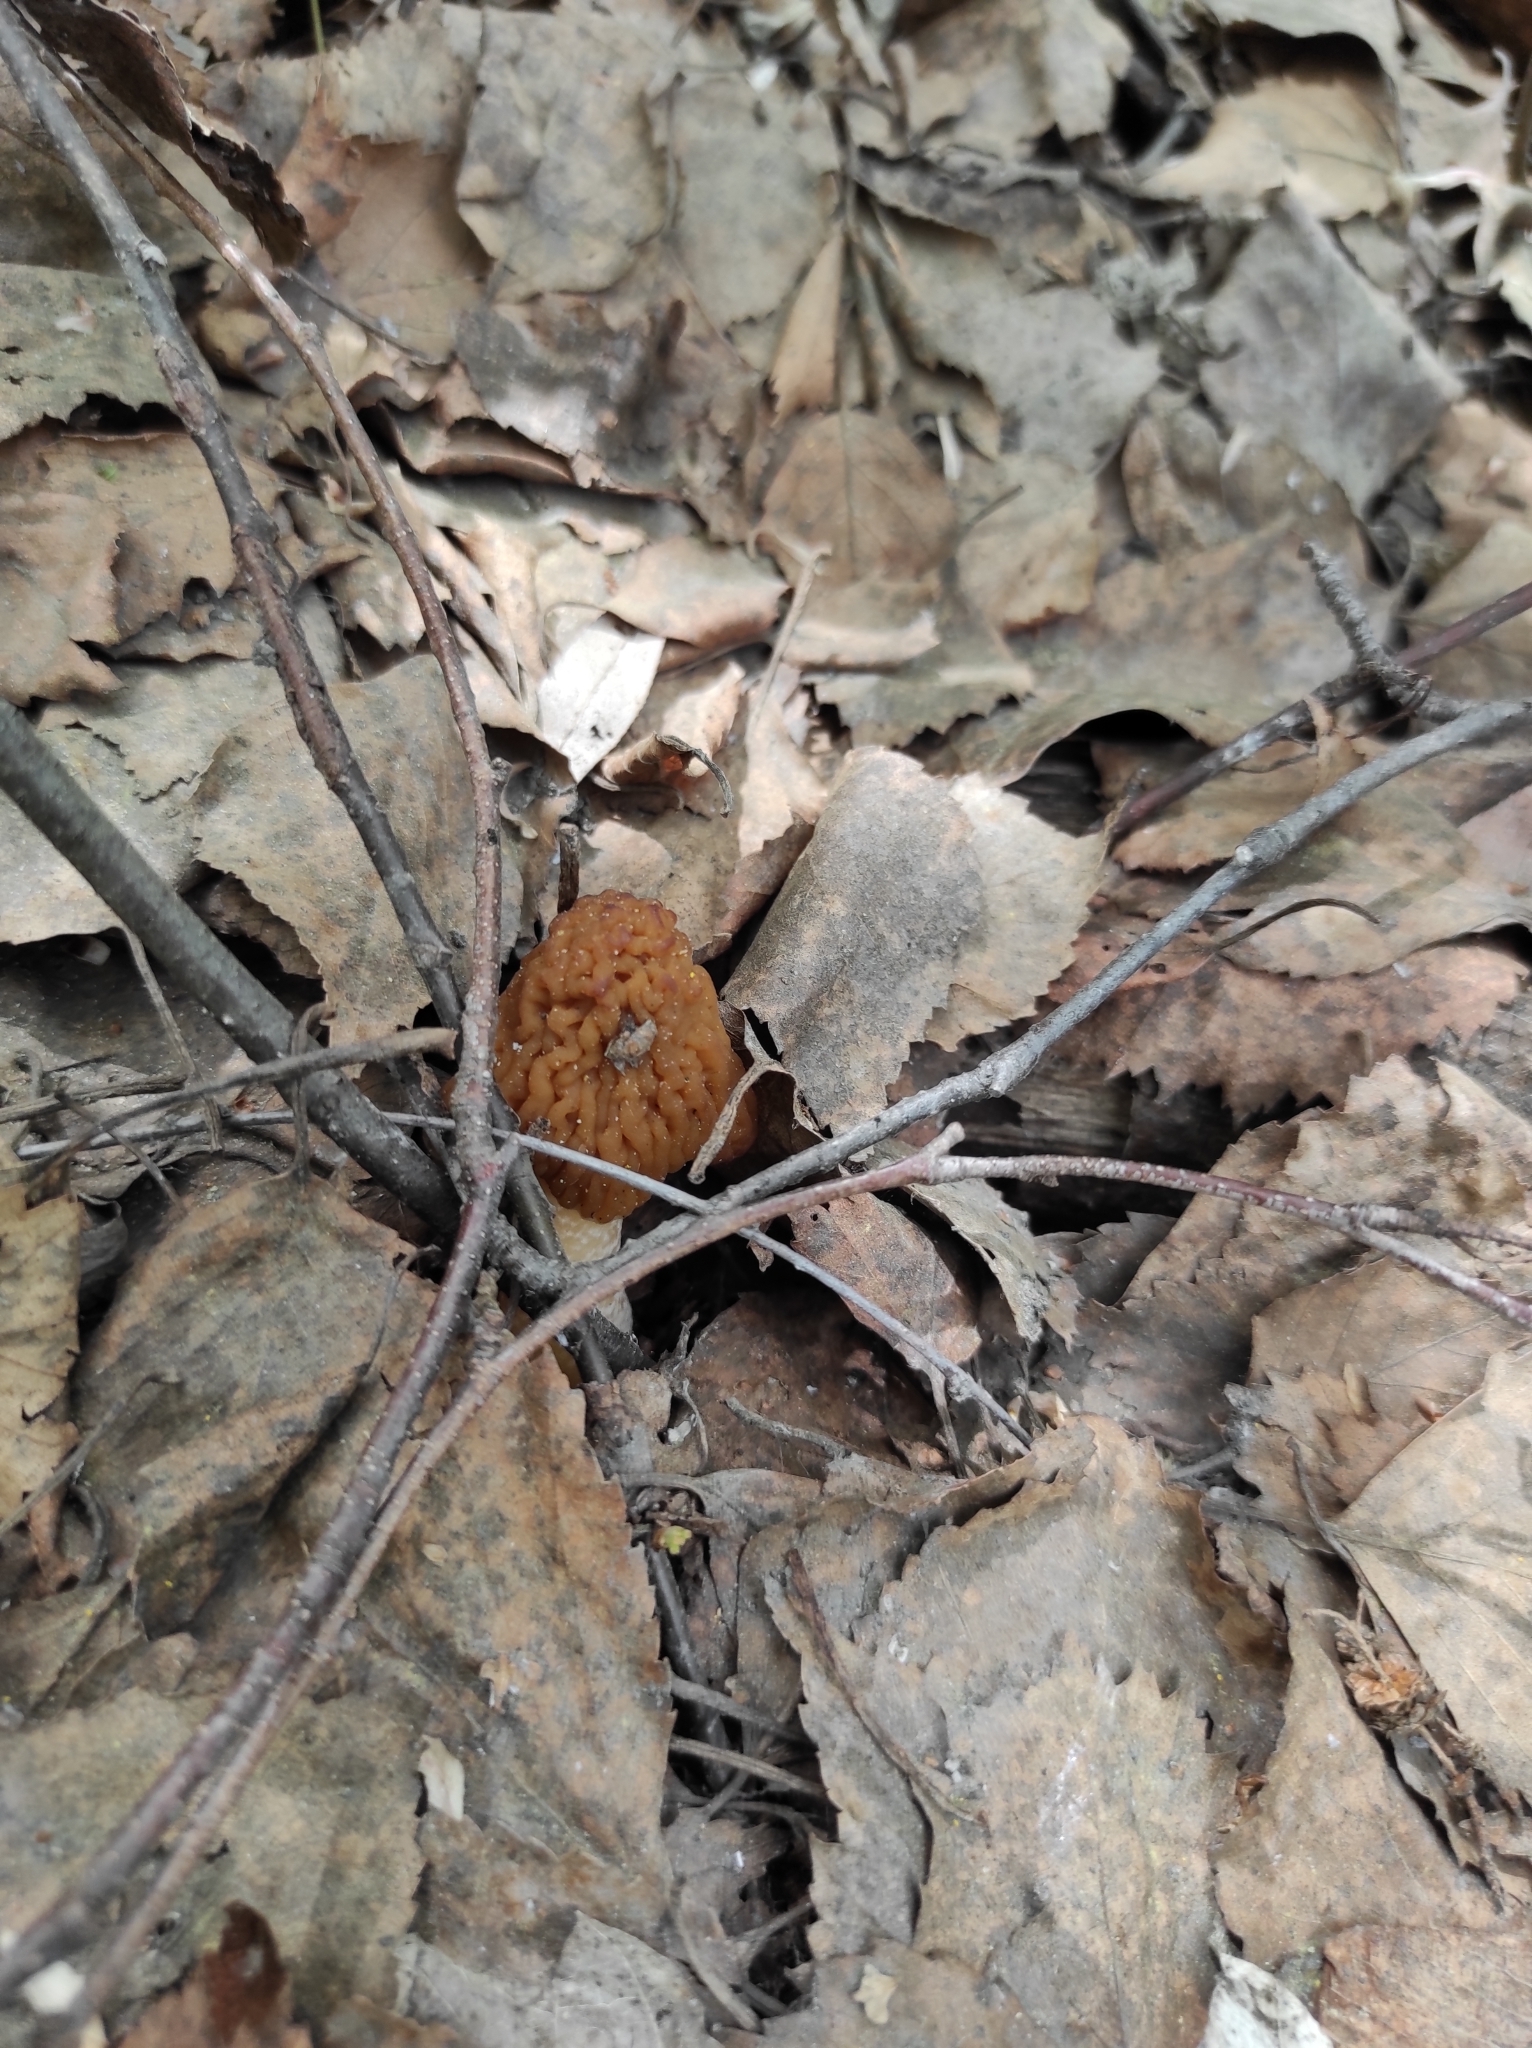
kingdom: Fungi
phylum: Ascomycota
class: Pezizomycetes
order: Pezizales
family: Morchellaceae
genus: Verpa
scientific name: Verpa bohemica
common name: Wrinkled thimble morel
